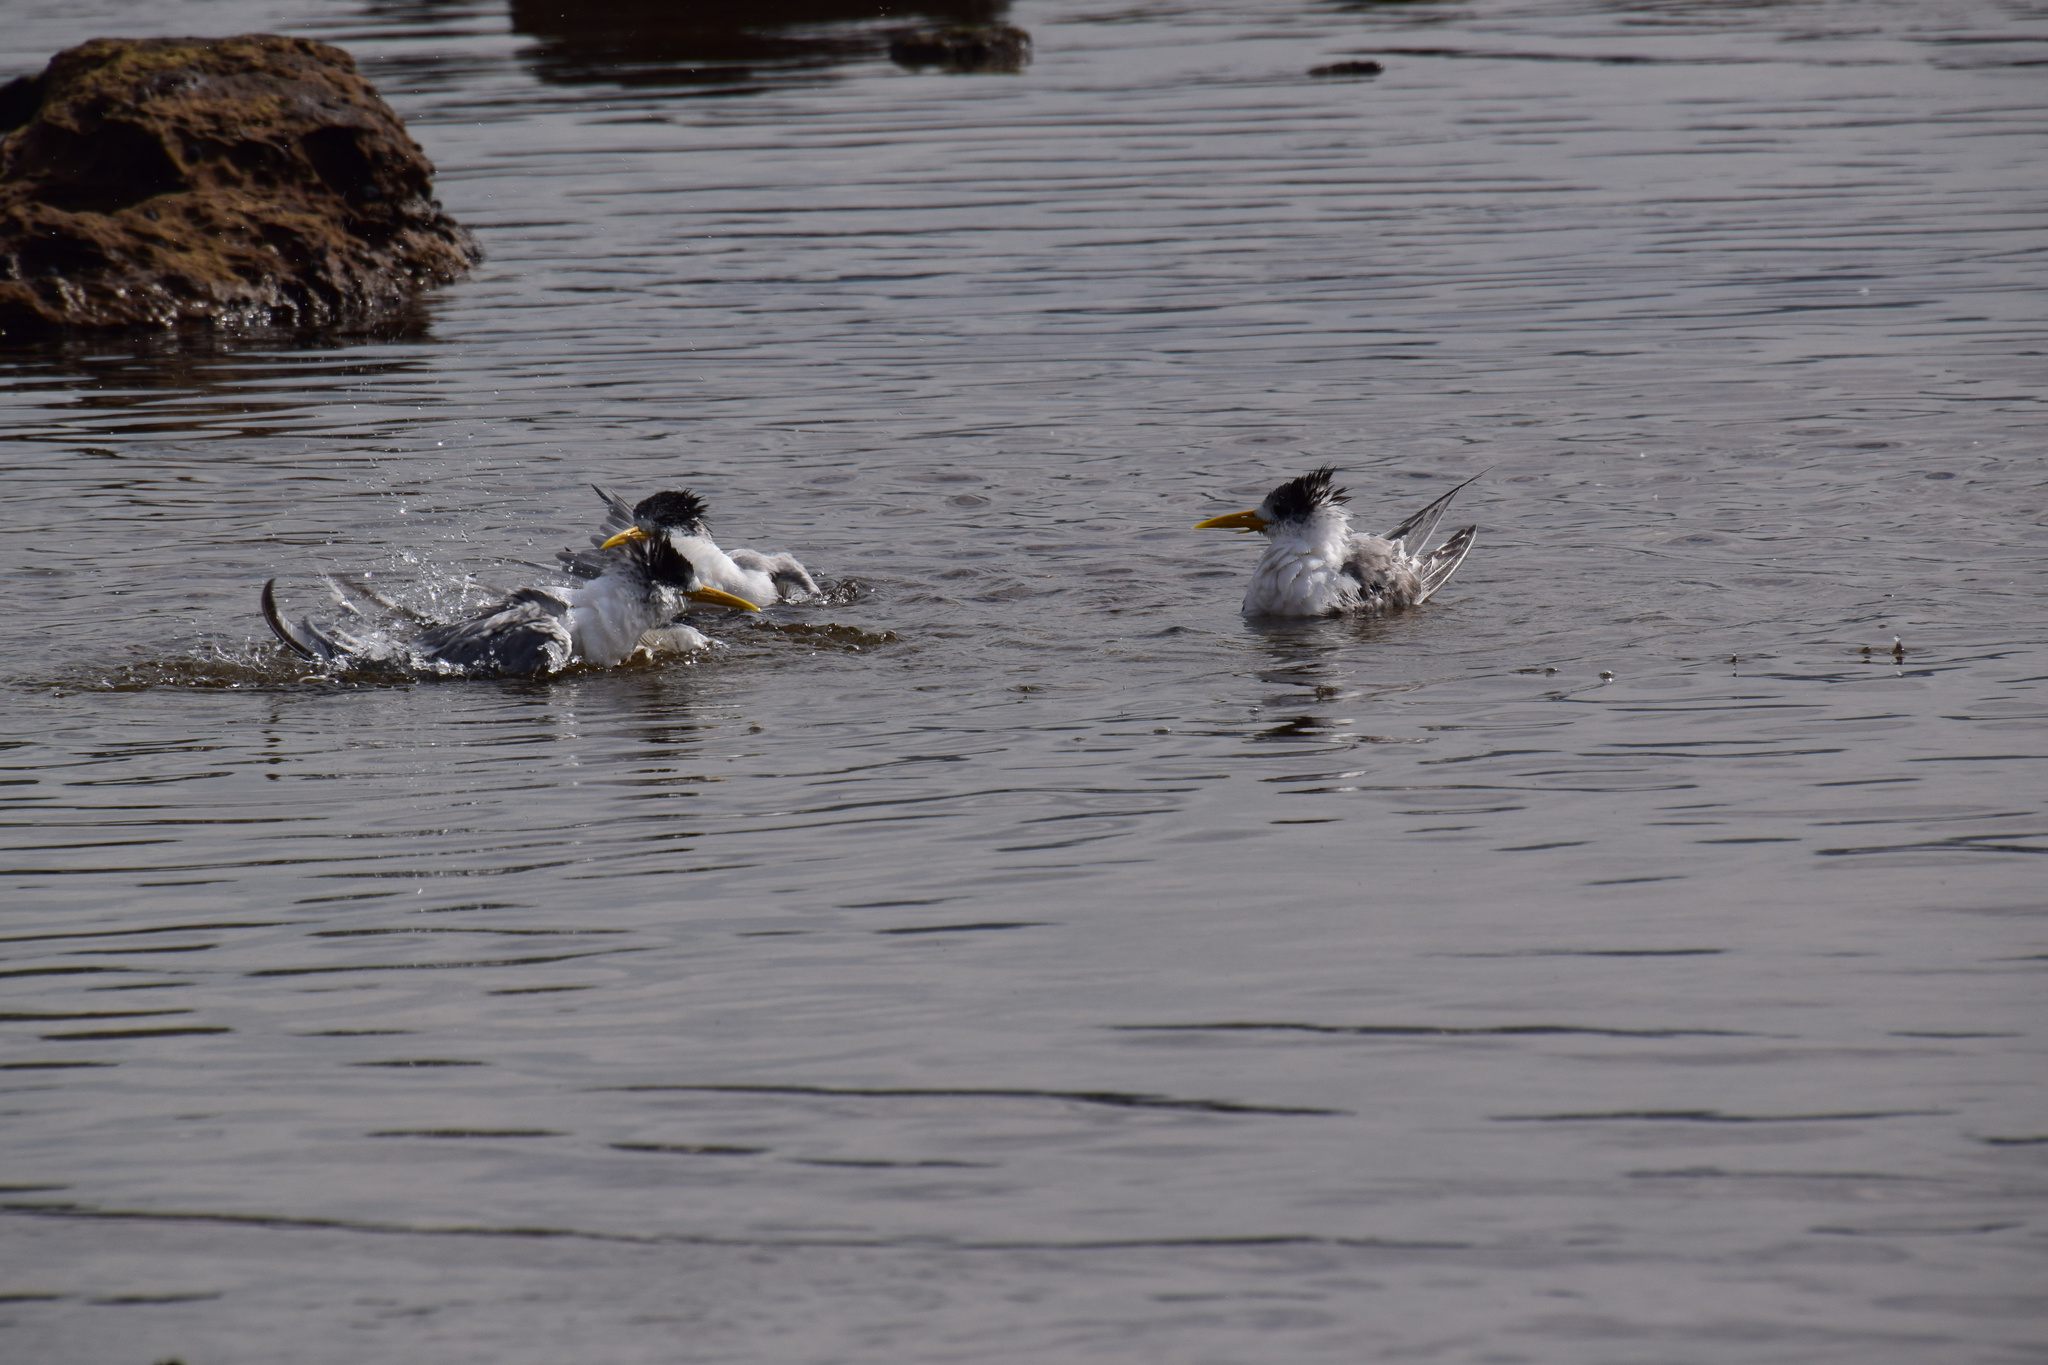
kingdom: Animalia
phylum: Chordata
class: Aves
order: Charadriiformes
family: Laridae
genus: Thalasseus
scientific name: Thalasseus bergii
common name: Greater crested tern
